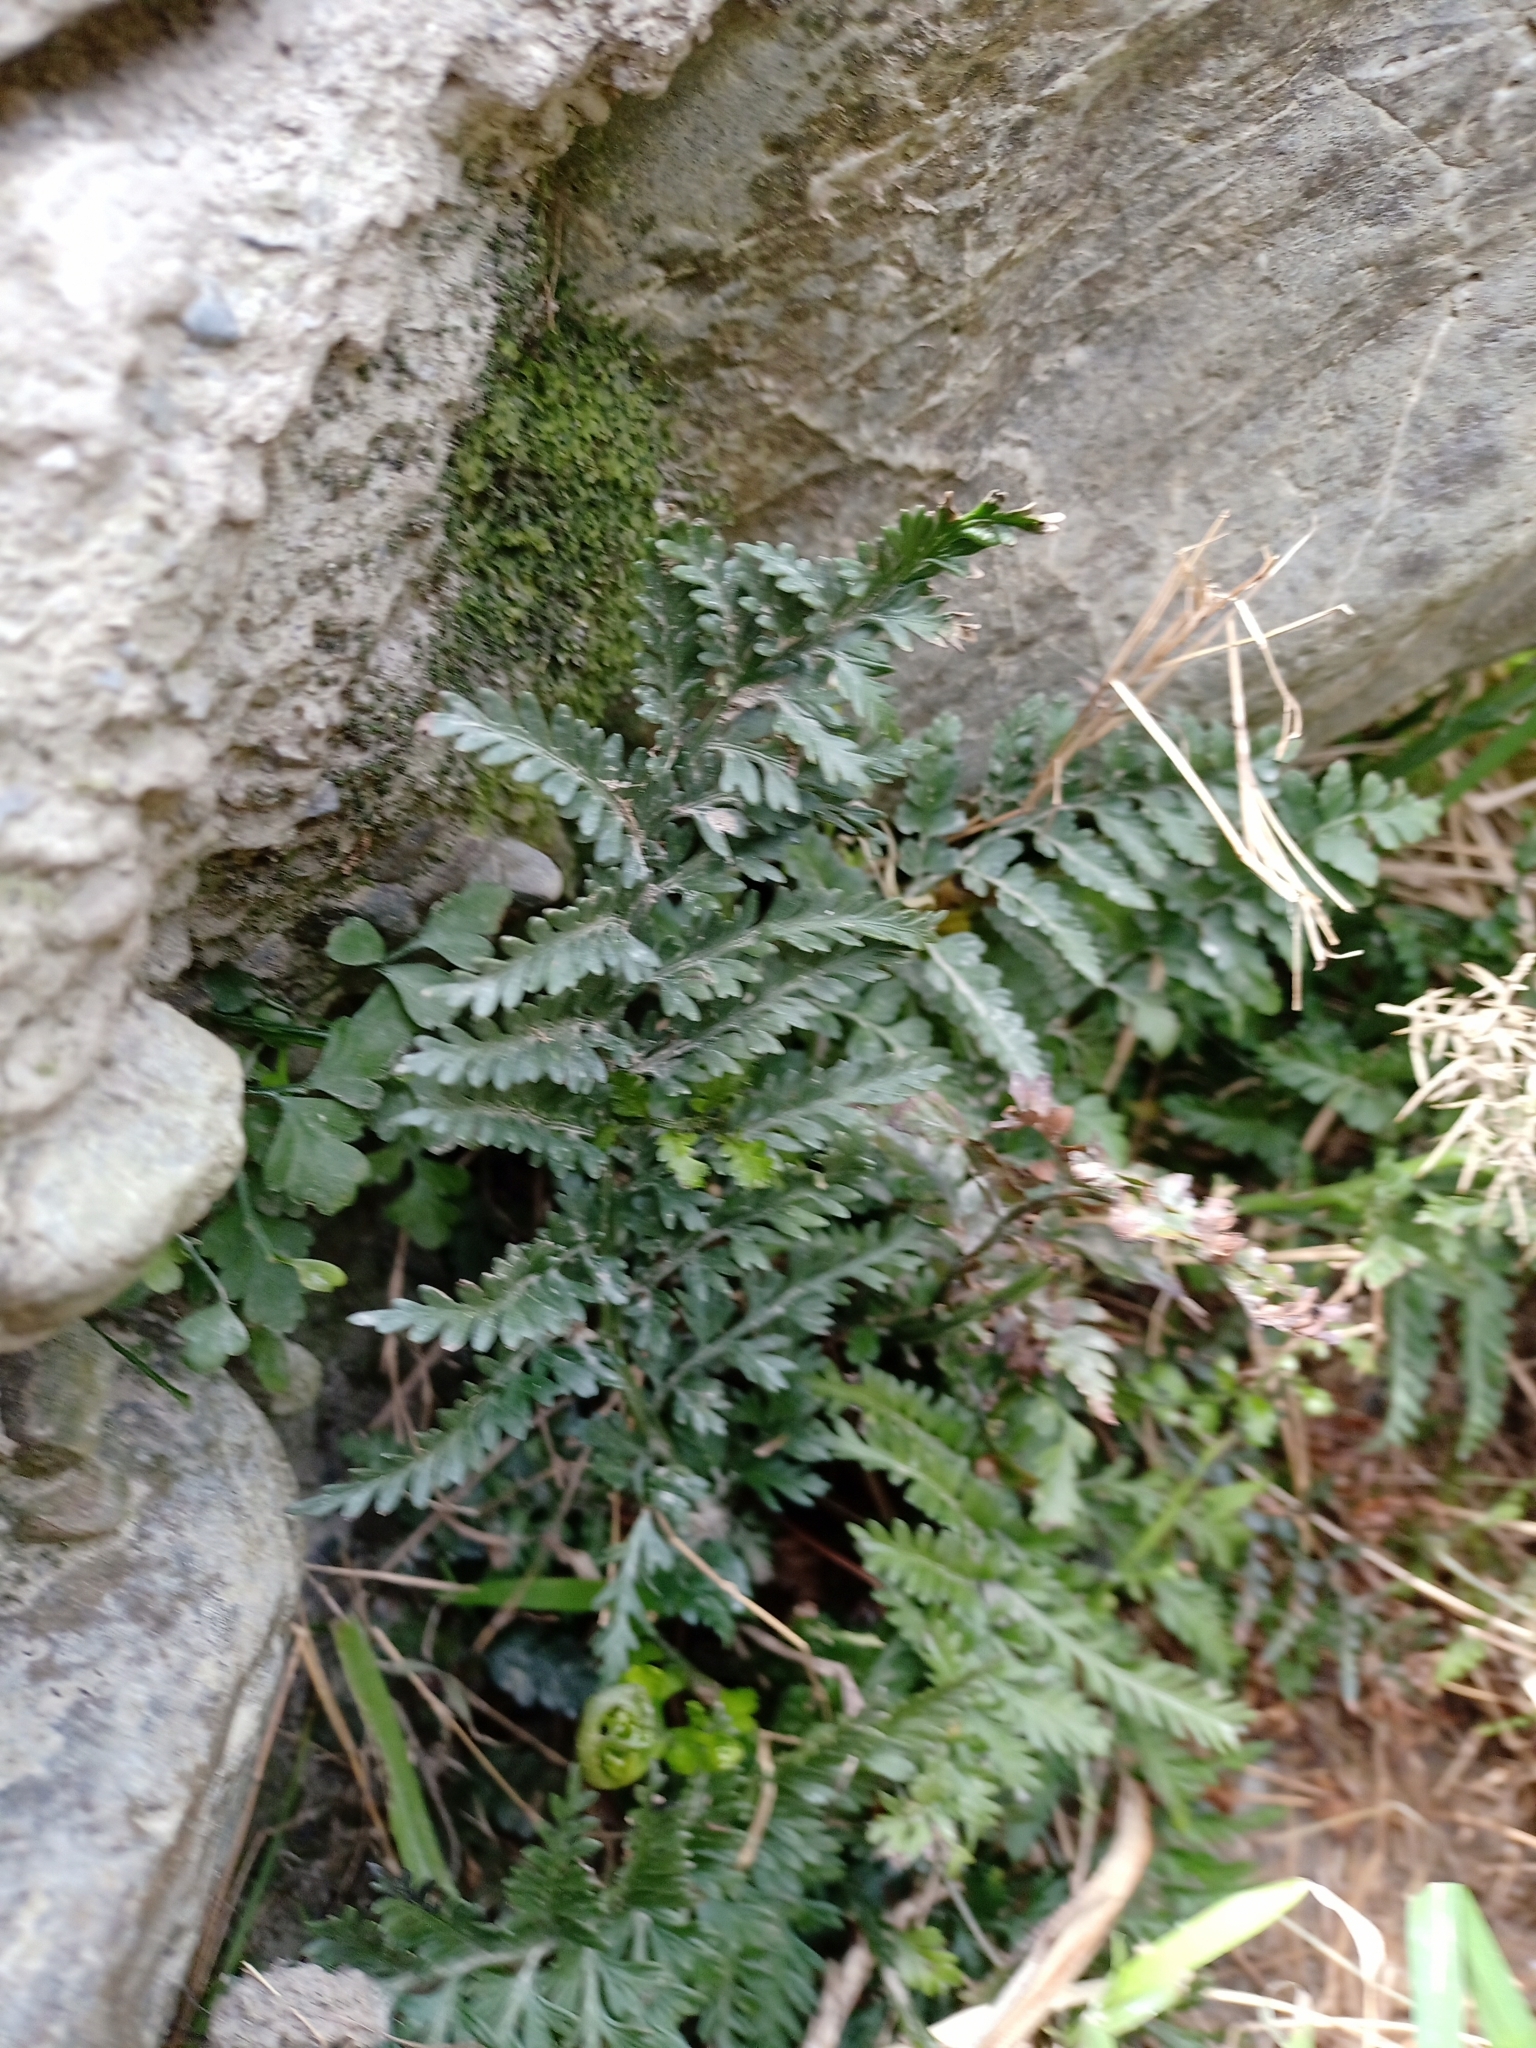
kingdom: Plantae
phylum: Tracheophyta
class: Polypodiopsida
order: Polypodiales
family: Aspleniaceae
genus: Asplenium
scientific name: Asplenium appendiculatum
